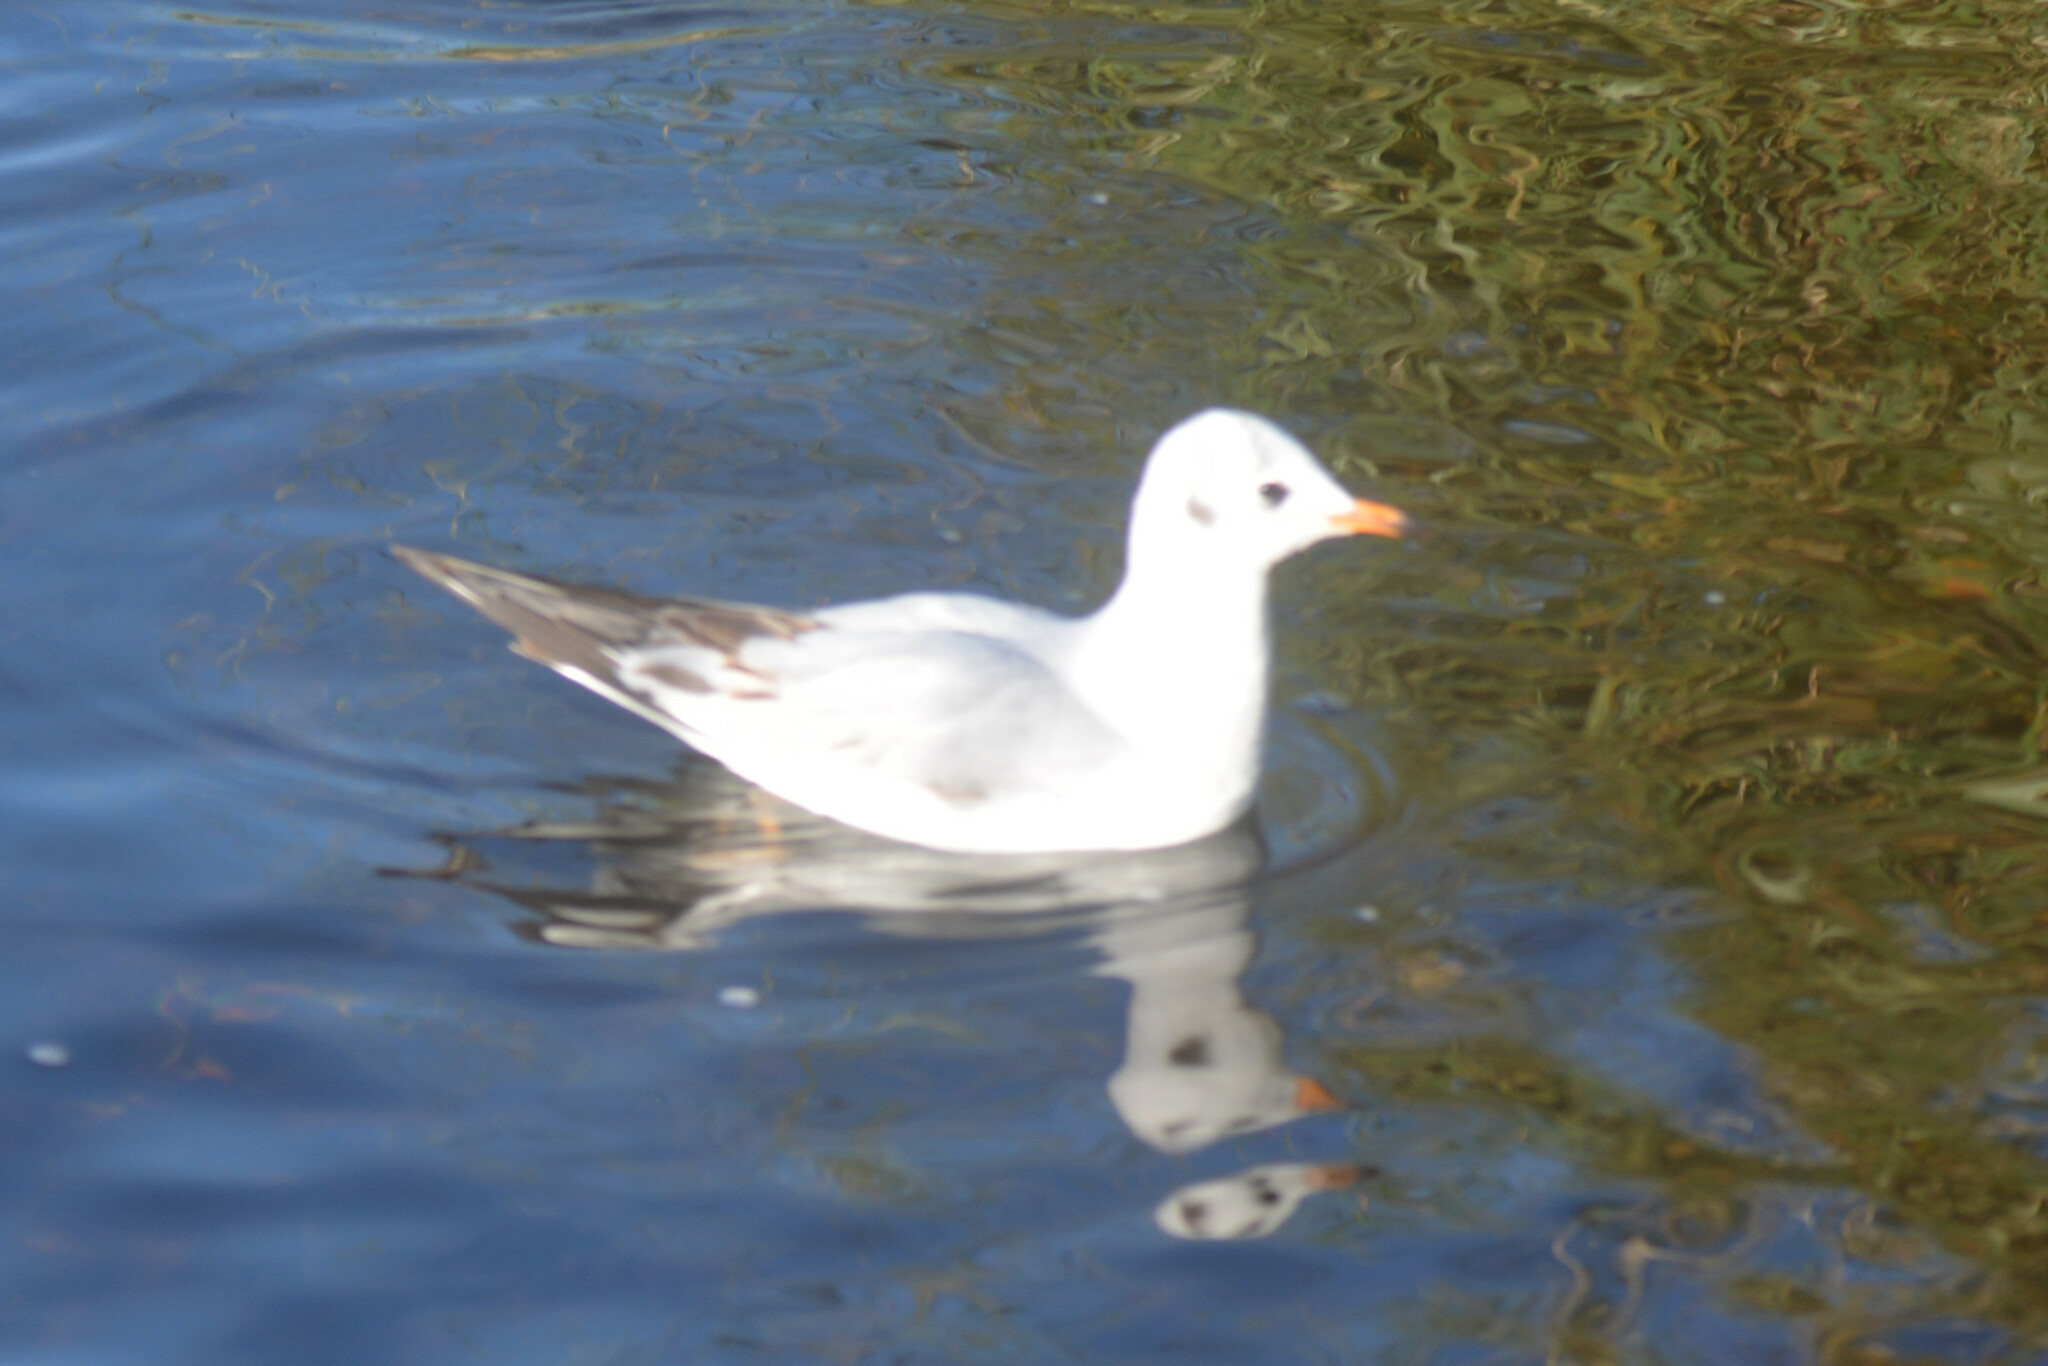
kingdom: Animalia
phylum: Chordata
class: Aves
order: Charadriiformes
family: Laridae
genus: Chroicocephalus
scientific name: Chroicocephalus ridibundus
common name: Black-headed gull
